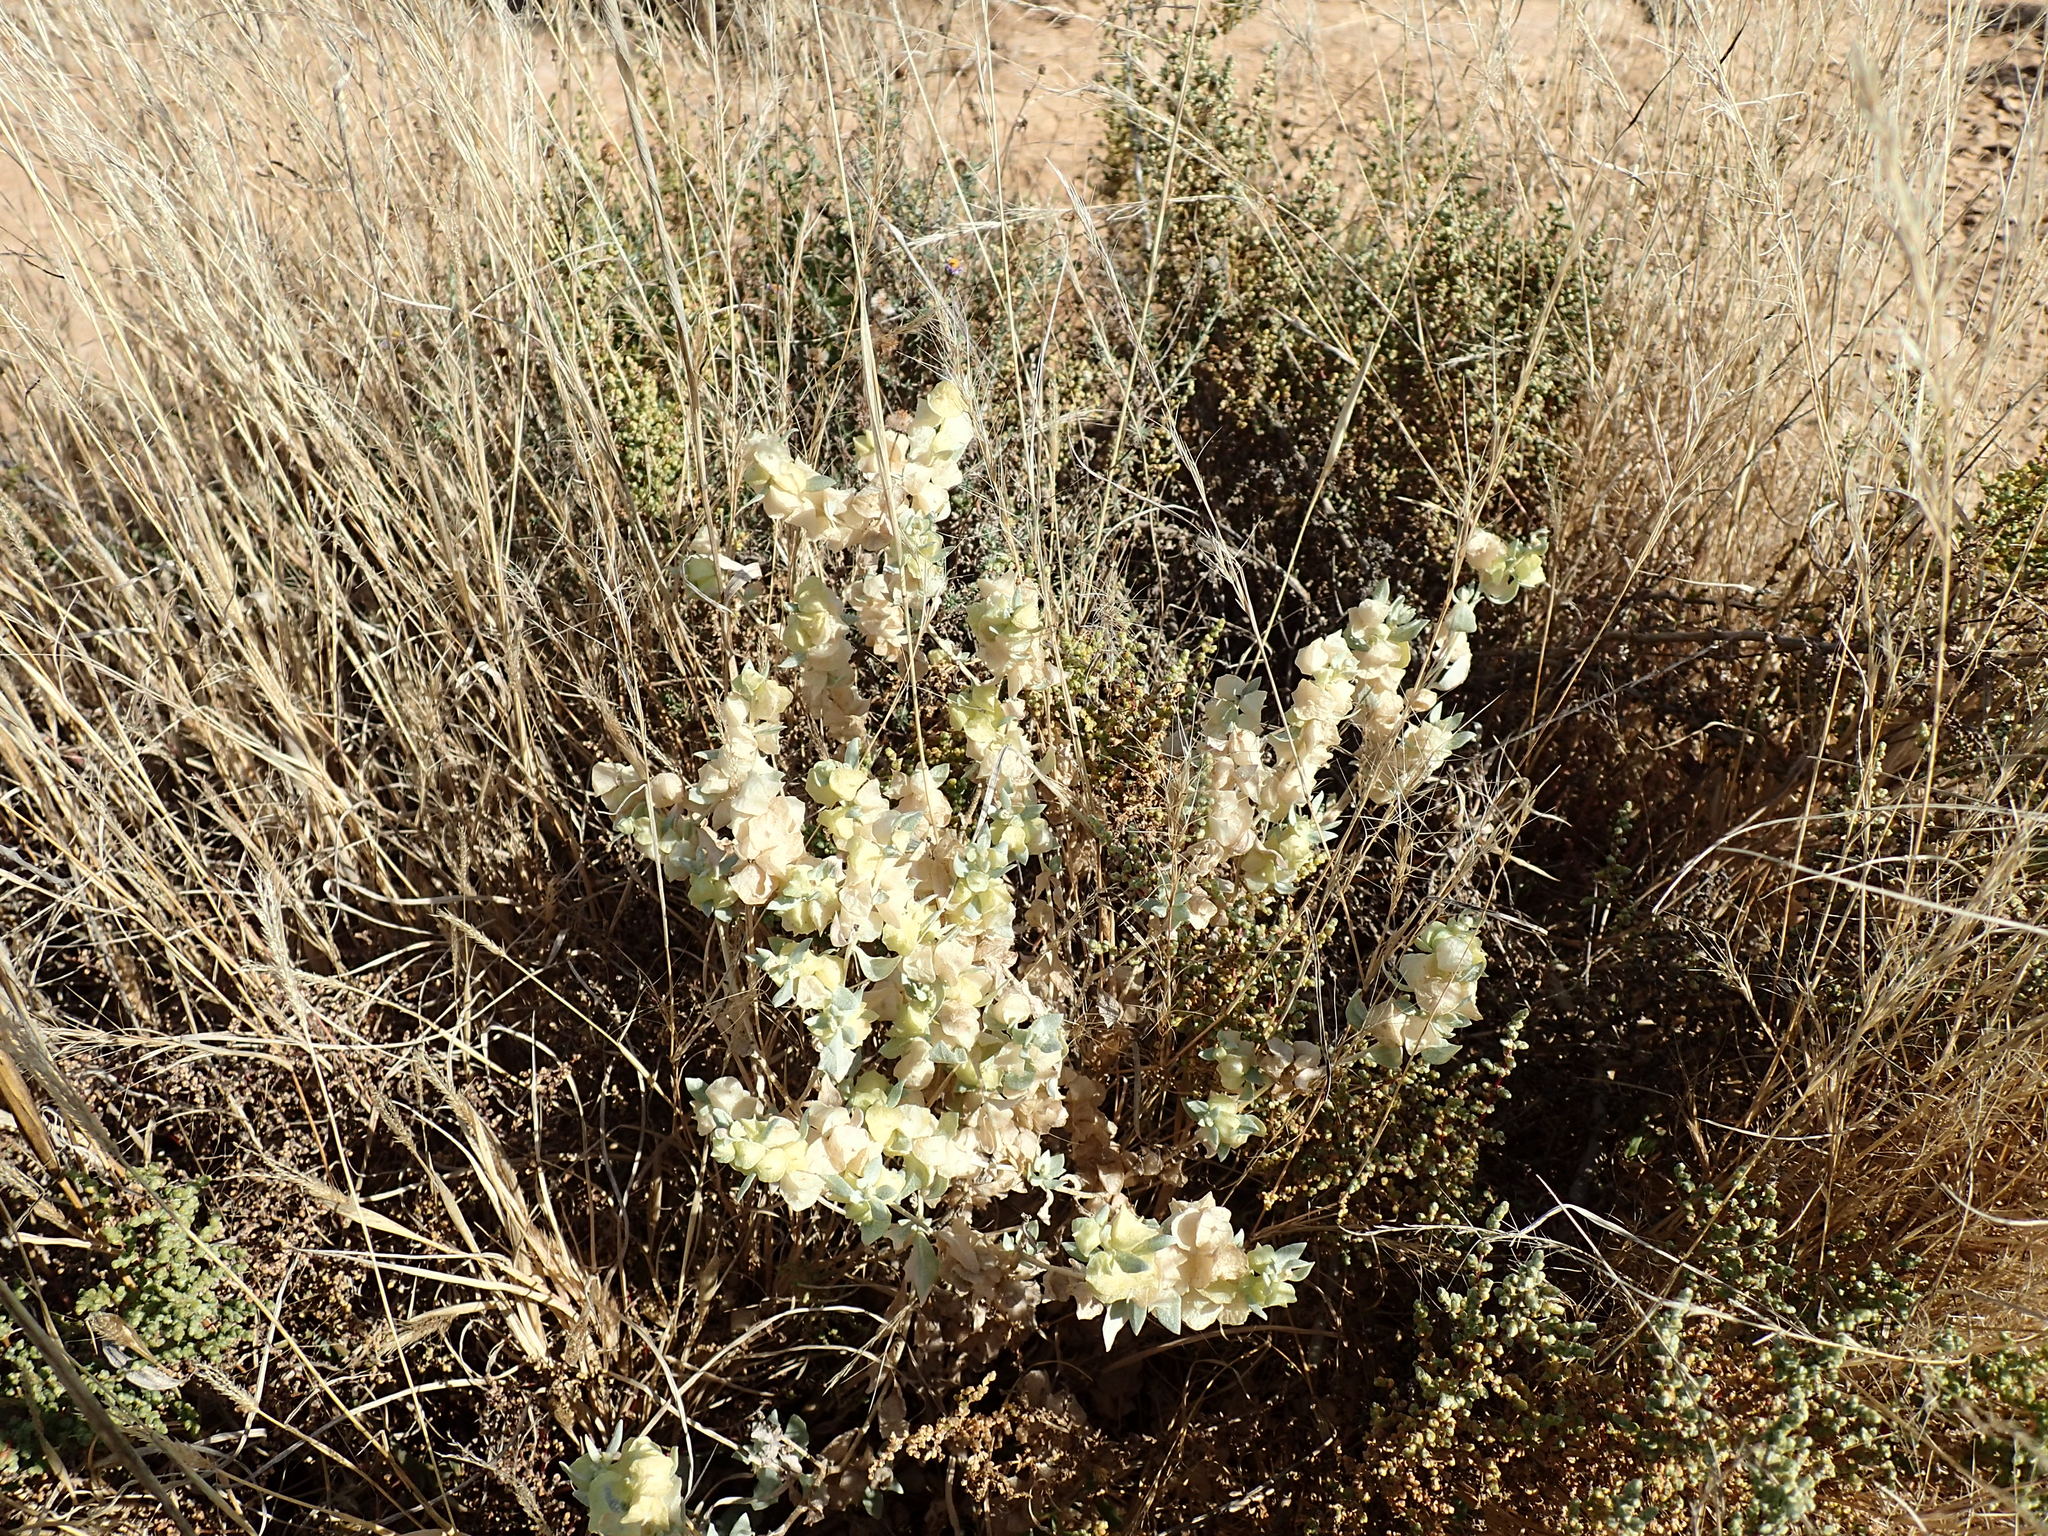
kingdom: Plantae
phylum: Tracheophyta
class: Magnoliopsida
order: Caryophyllales
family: Amaranthaceae
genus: Atriplex
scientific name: Atriplex lindleyi
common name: Lindley's saltbush
